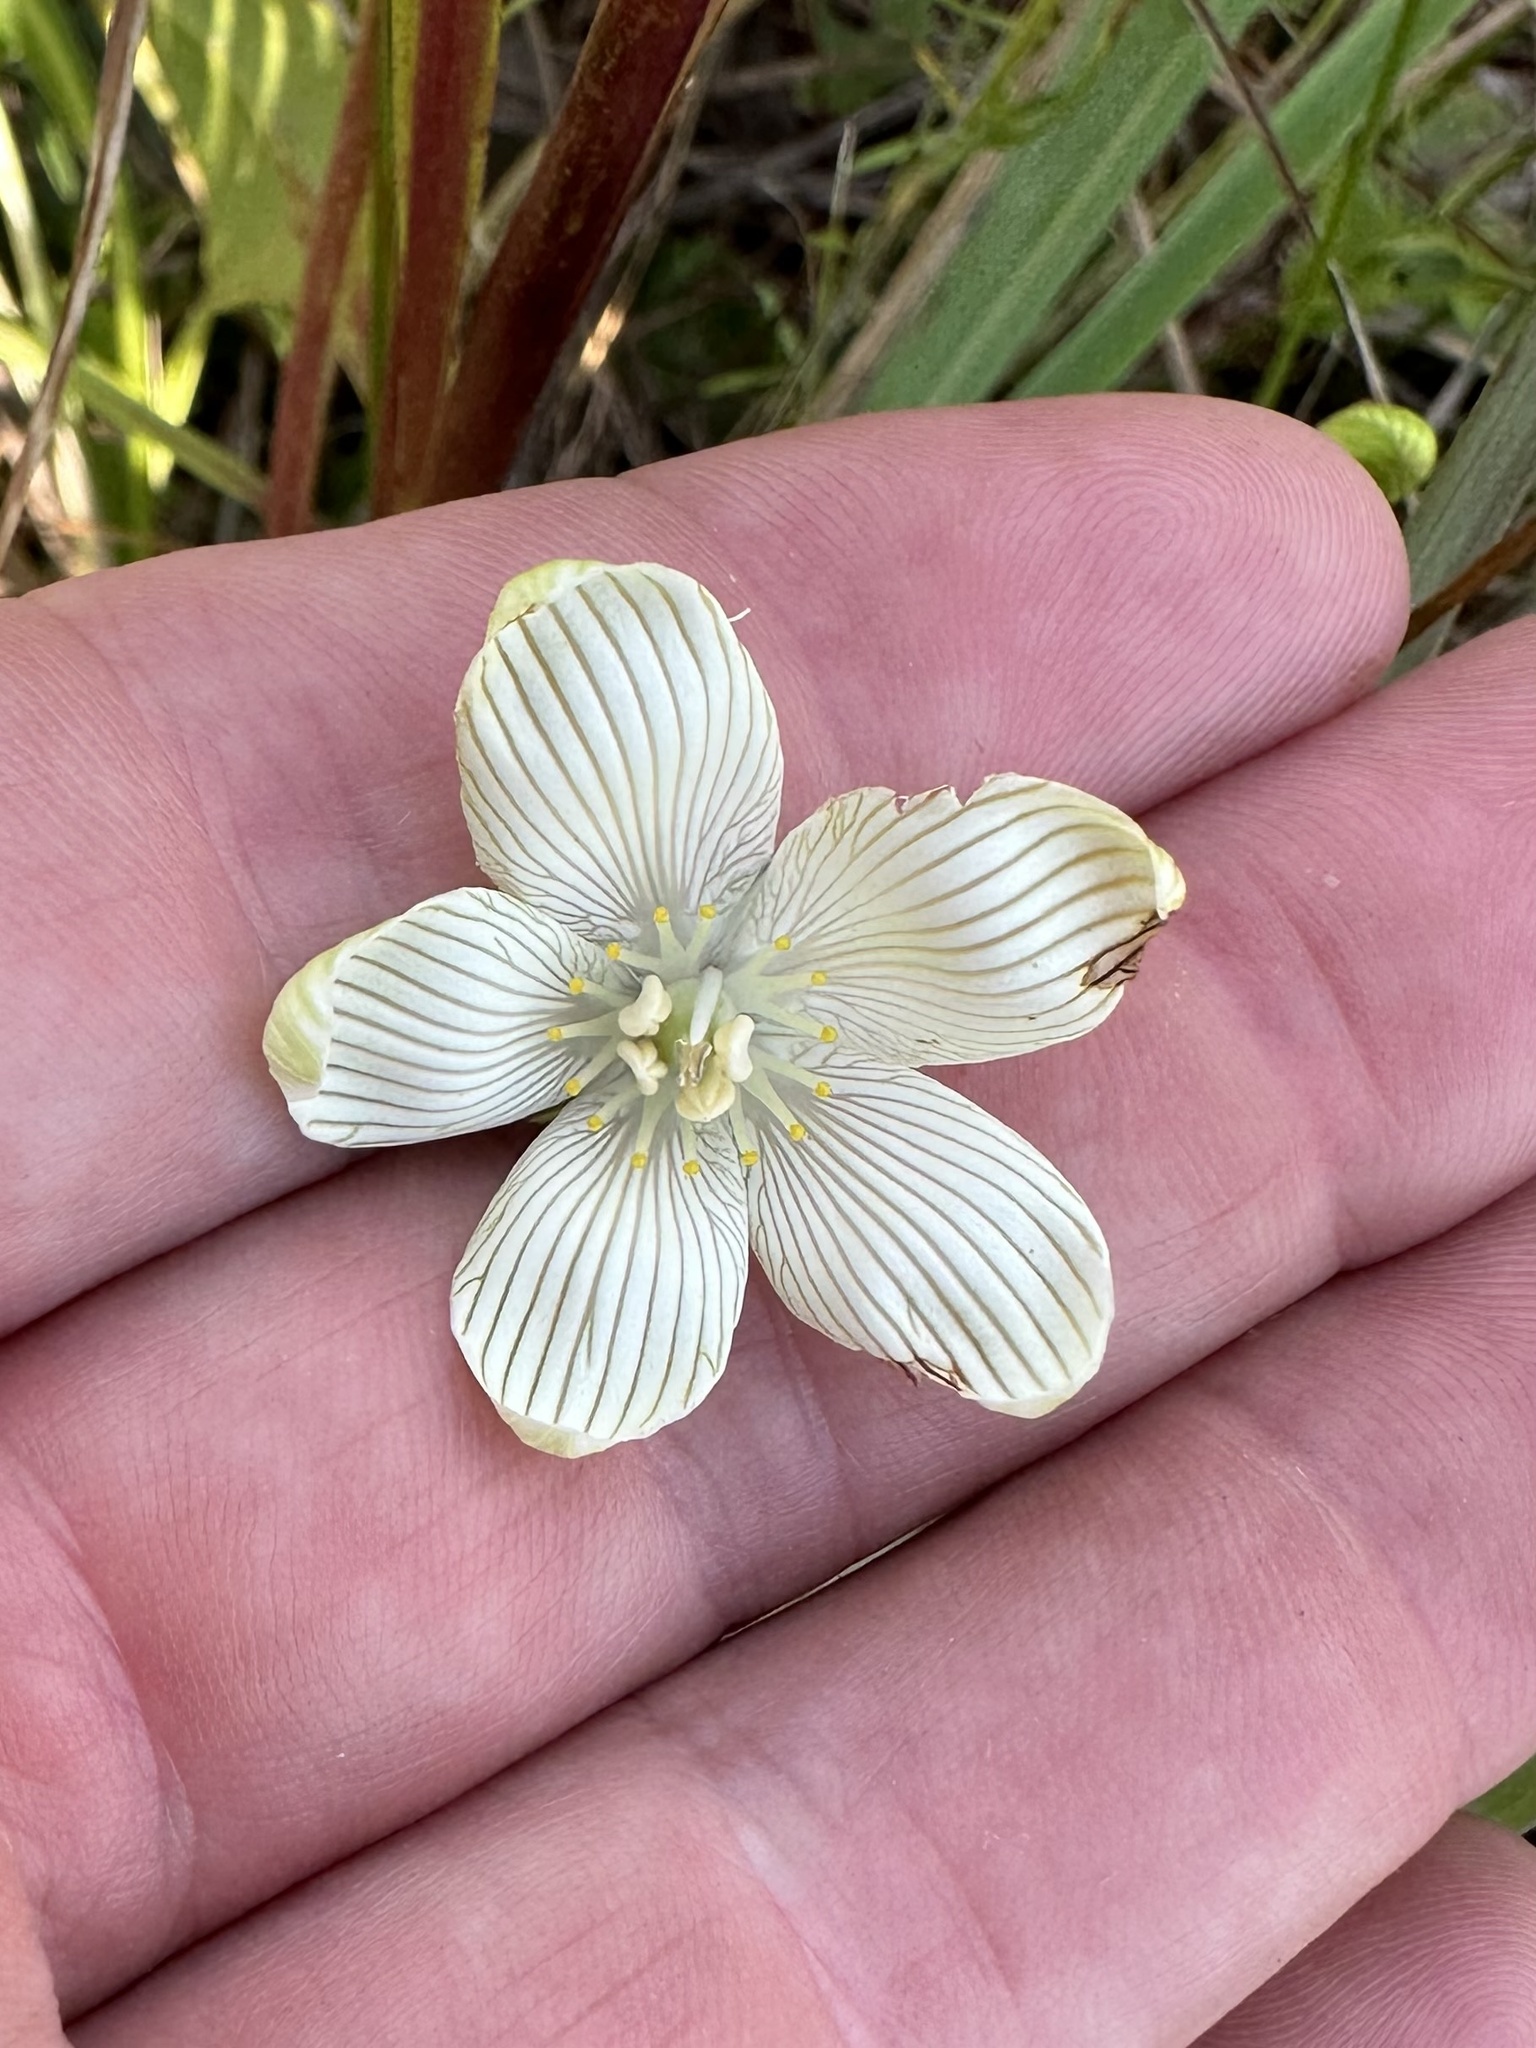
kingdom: Plantae
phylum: Tracheophyta
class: Magnoliopsida
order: Celastrales
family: Parnassiaceae
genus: Parnassia
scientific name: Parnassia glauca
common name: American grass-of-parnassus
